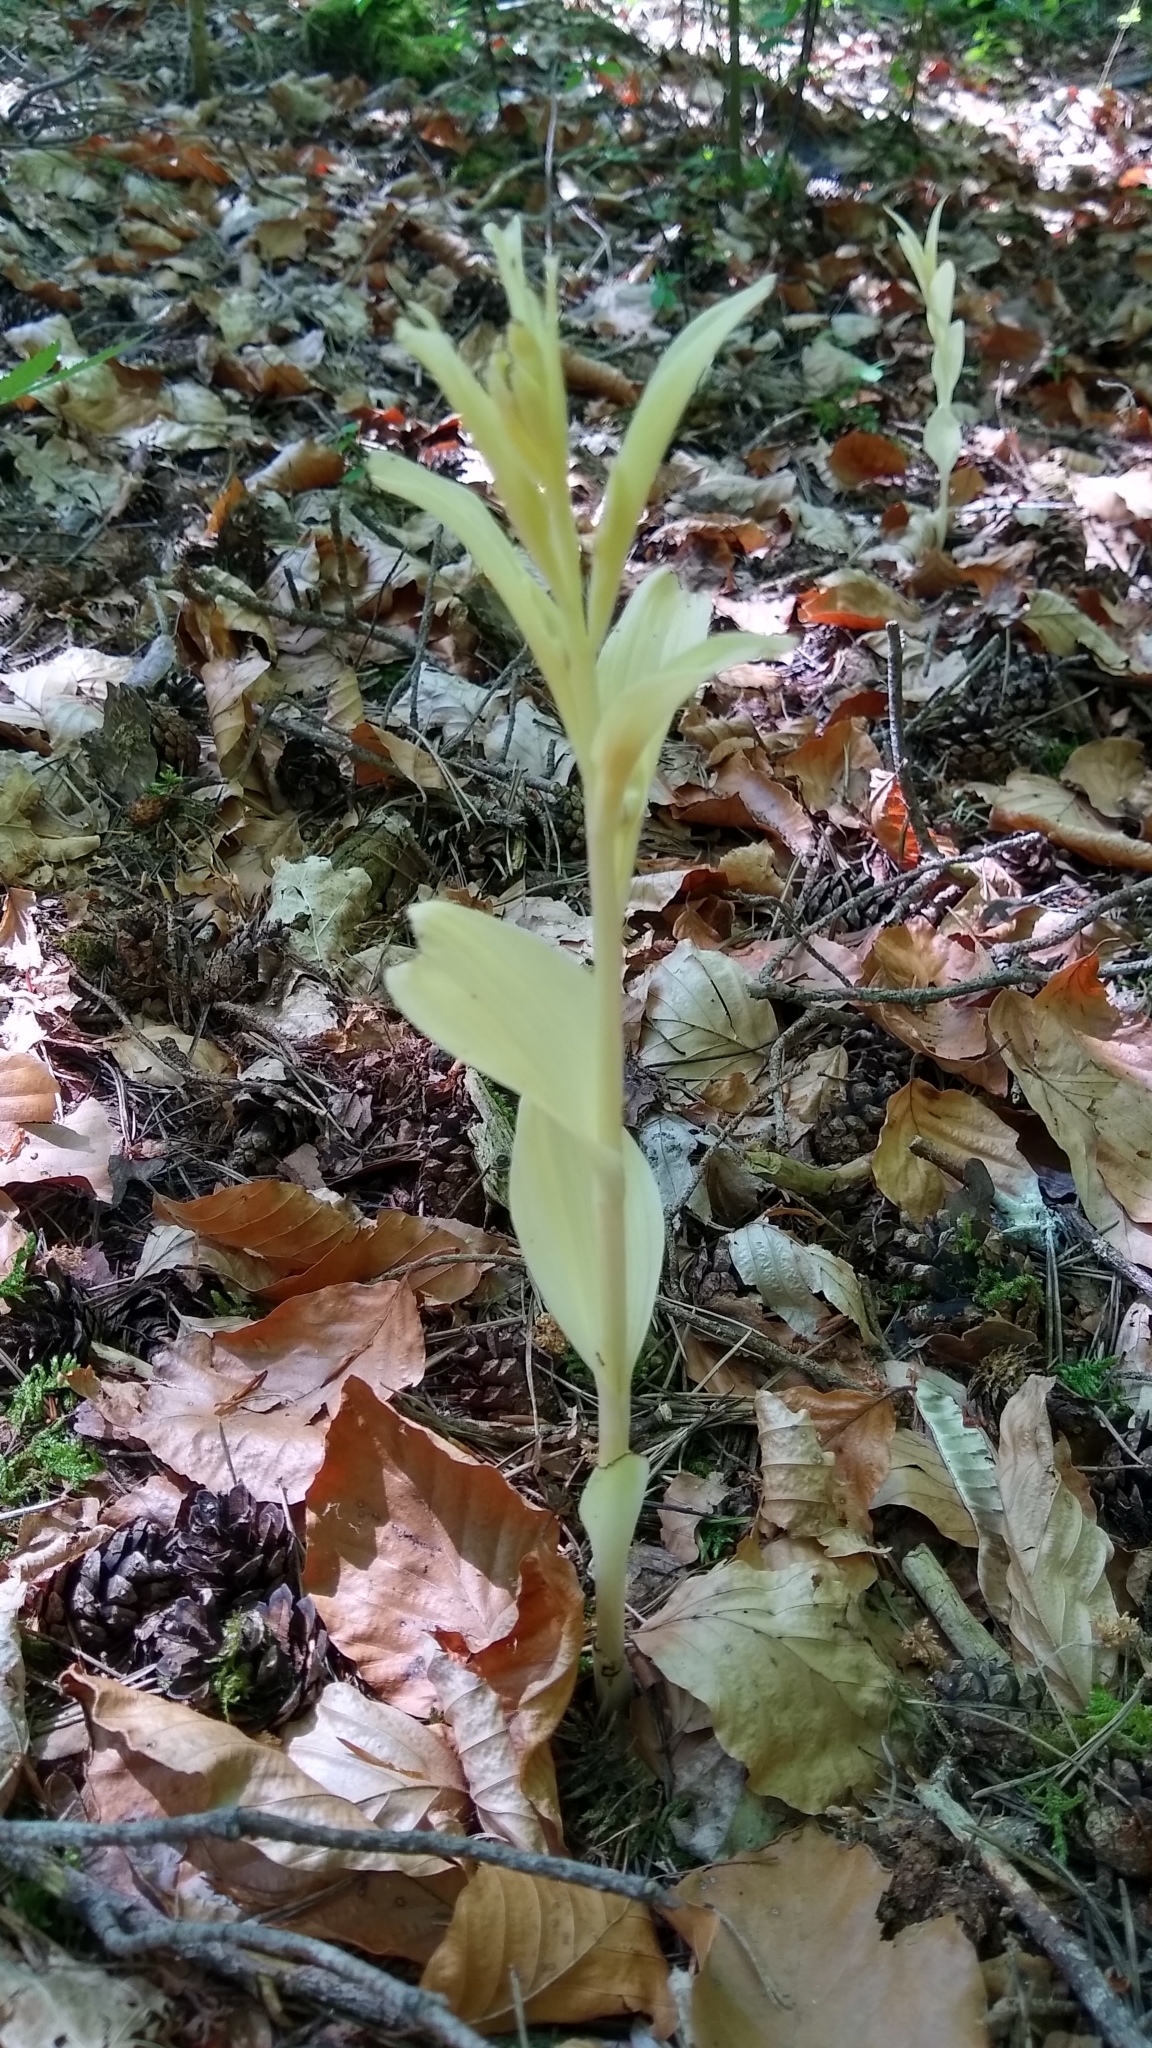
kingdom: Plantae
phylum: Tracheophyta
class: Liliopsida
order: Asparagales
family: Orchidaceae
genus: Cephalanthera
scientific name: Cephalanthera damasonium
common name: White helleborine
